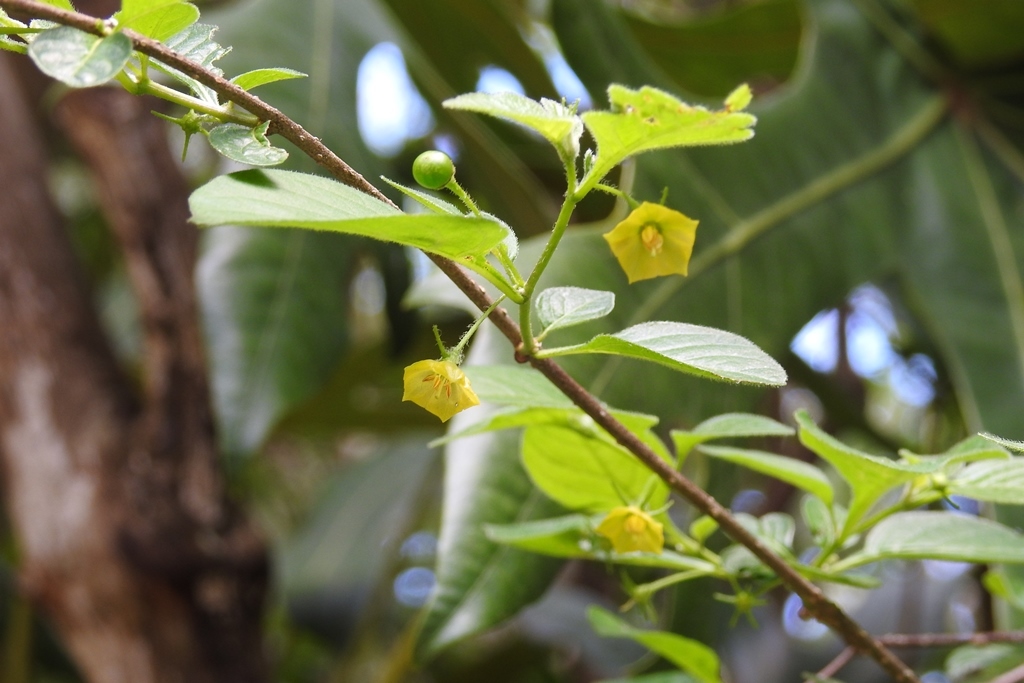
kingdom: Plantae
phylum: Tracheophyta
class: Magnoliopsida
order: Solanales
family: Solanaceae
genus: Capsicum
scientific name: Capsicum rhomboideum
